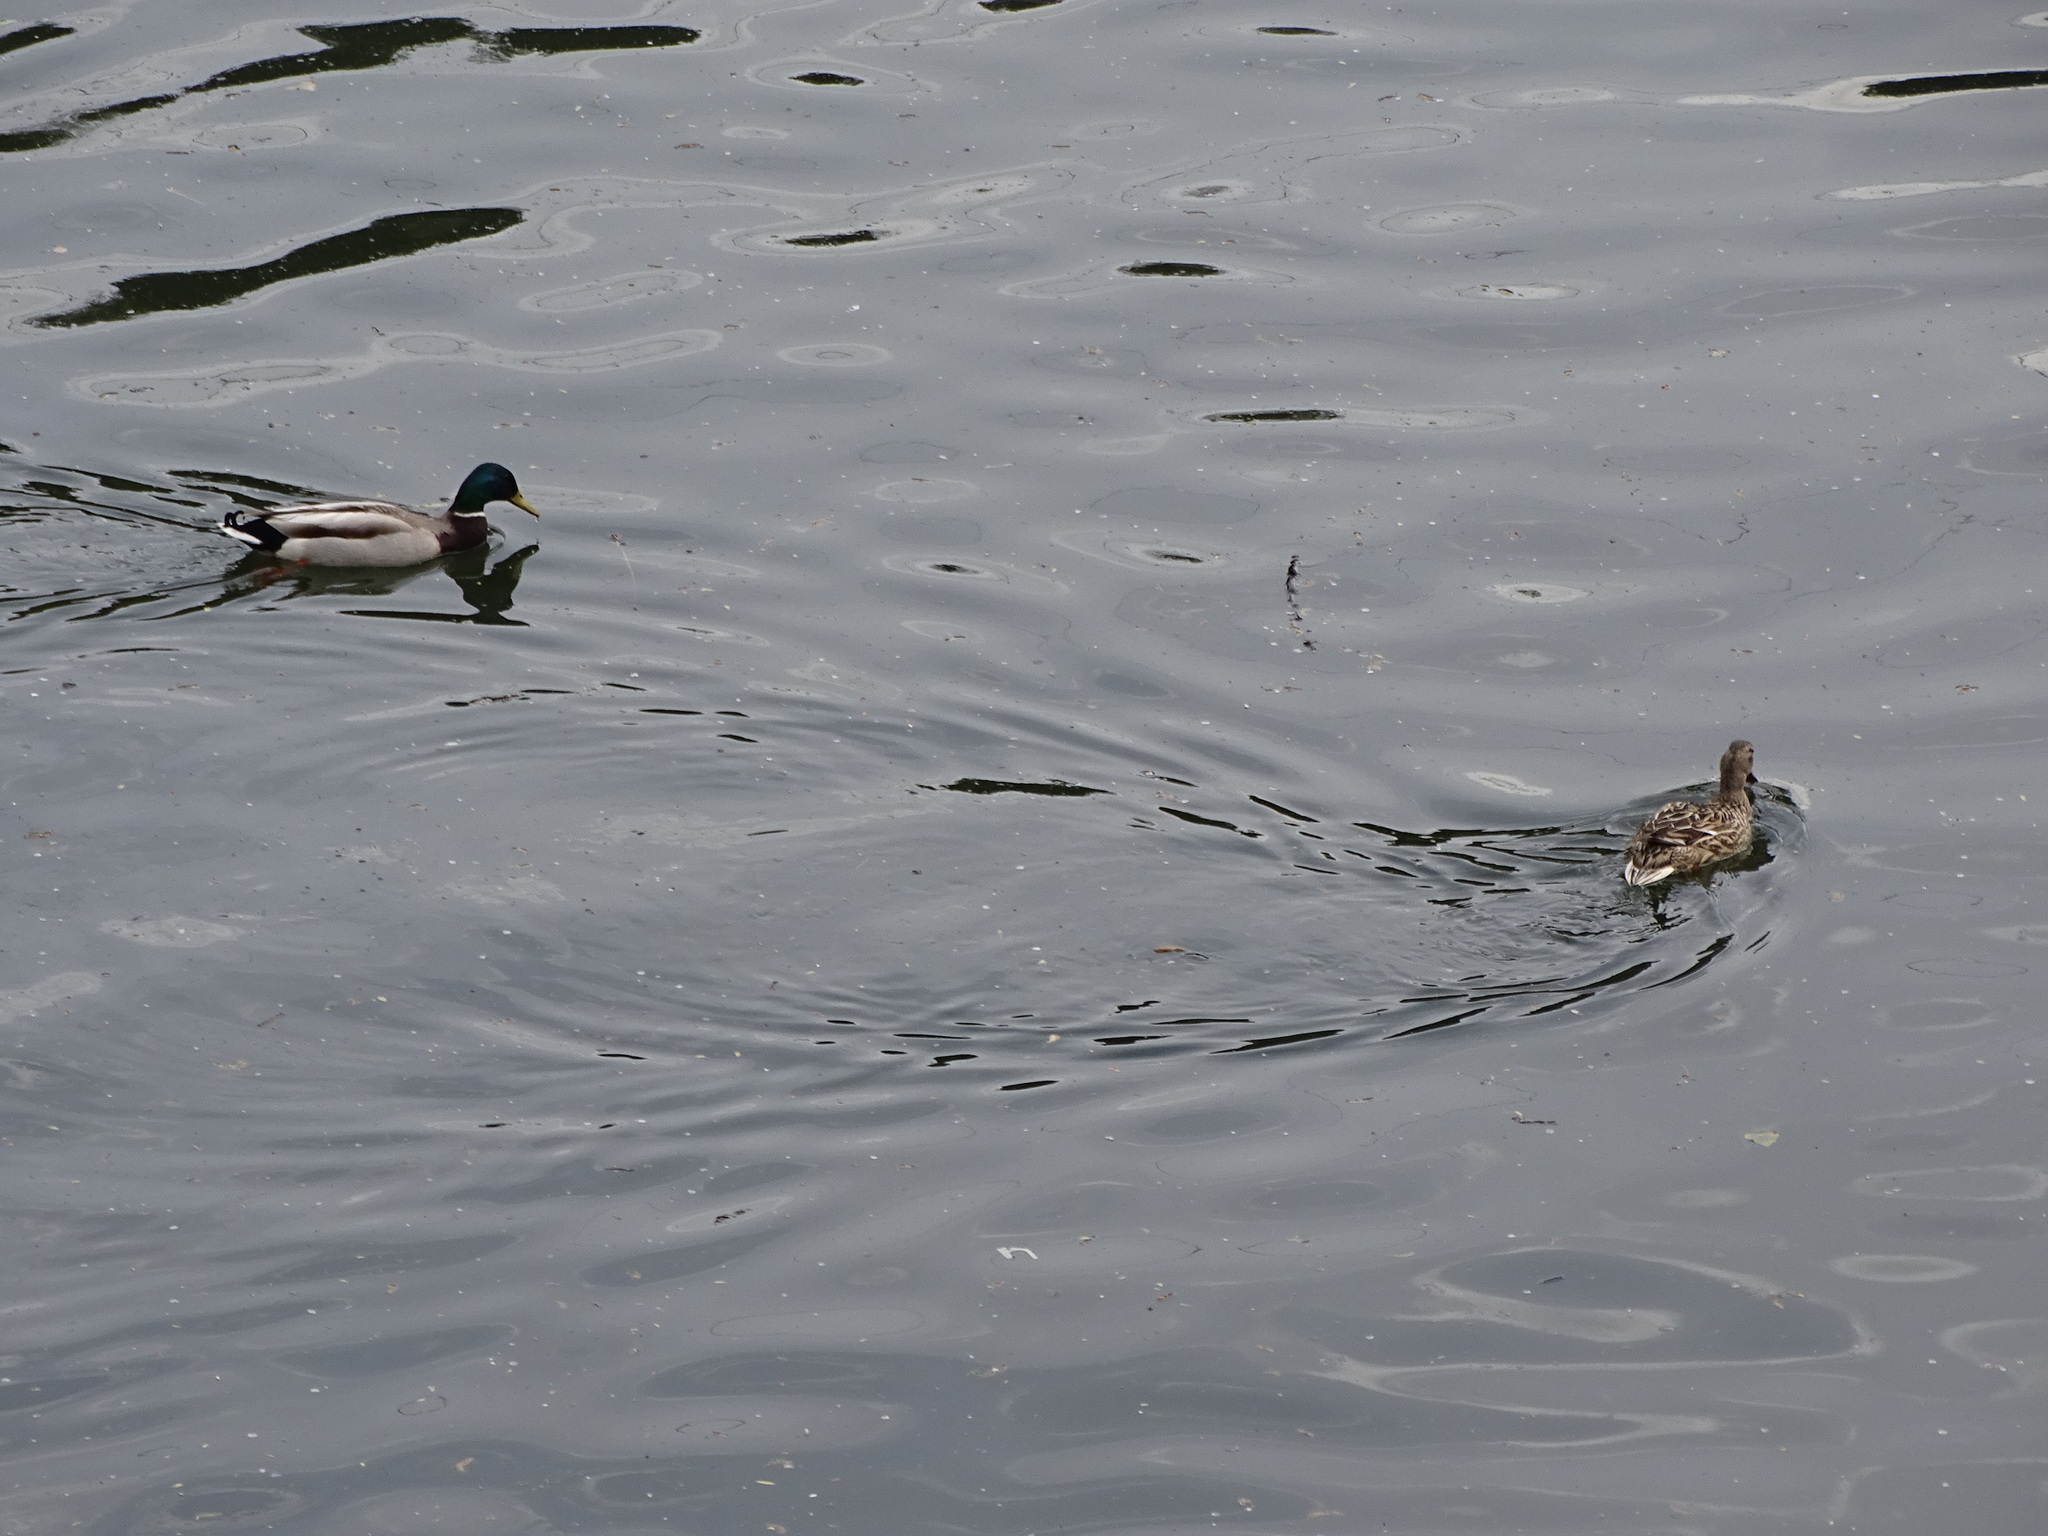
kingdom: Animalia
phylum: Chordata
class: Aves
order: Anseriformes
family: Anatidae
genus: Anas
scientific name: Anas platyrhynchos
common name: Mallard
